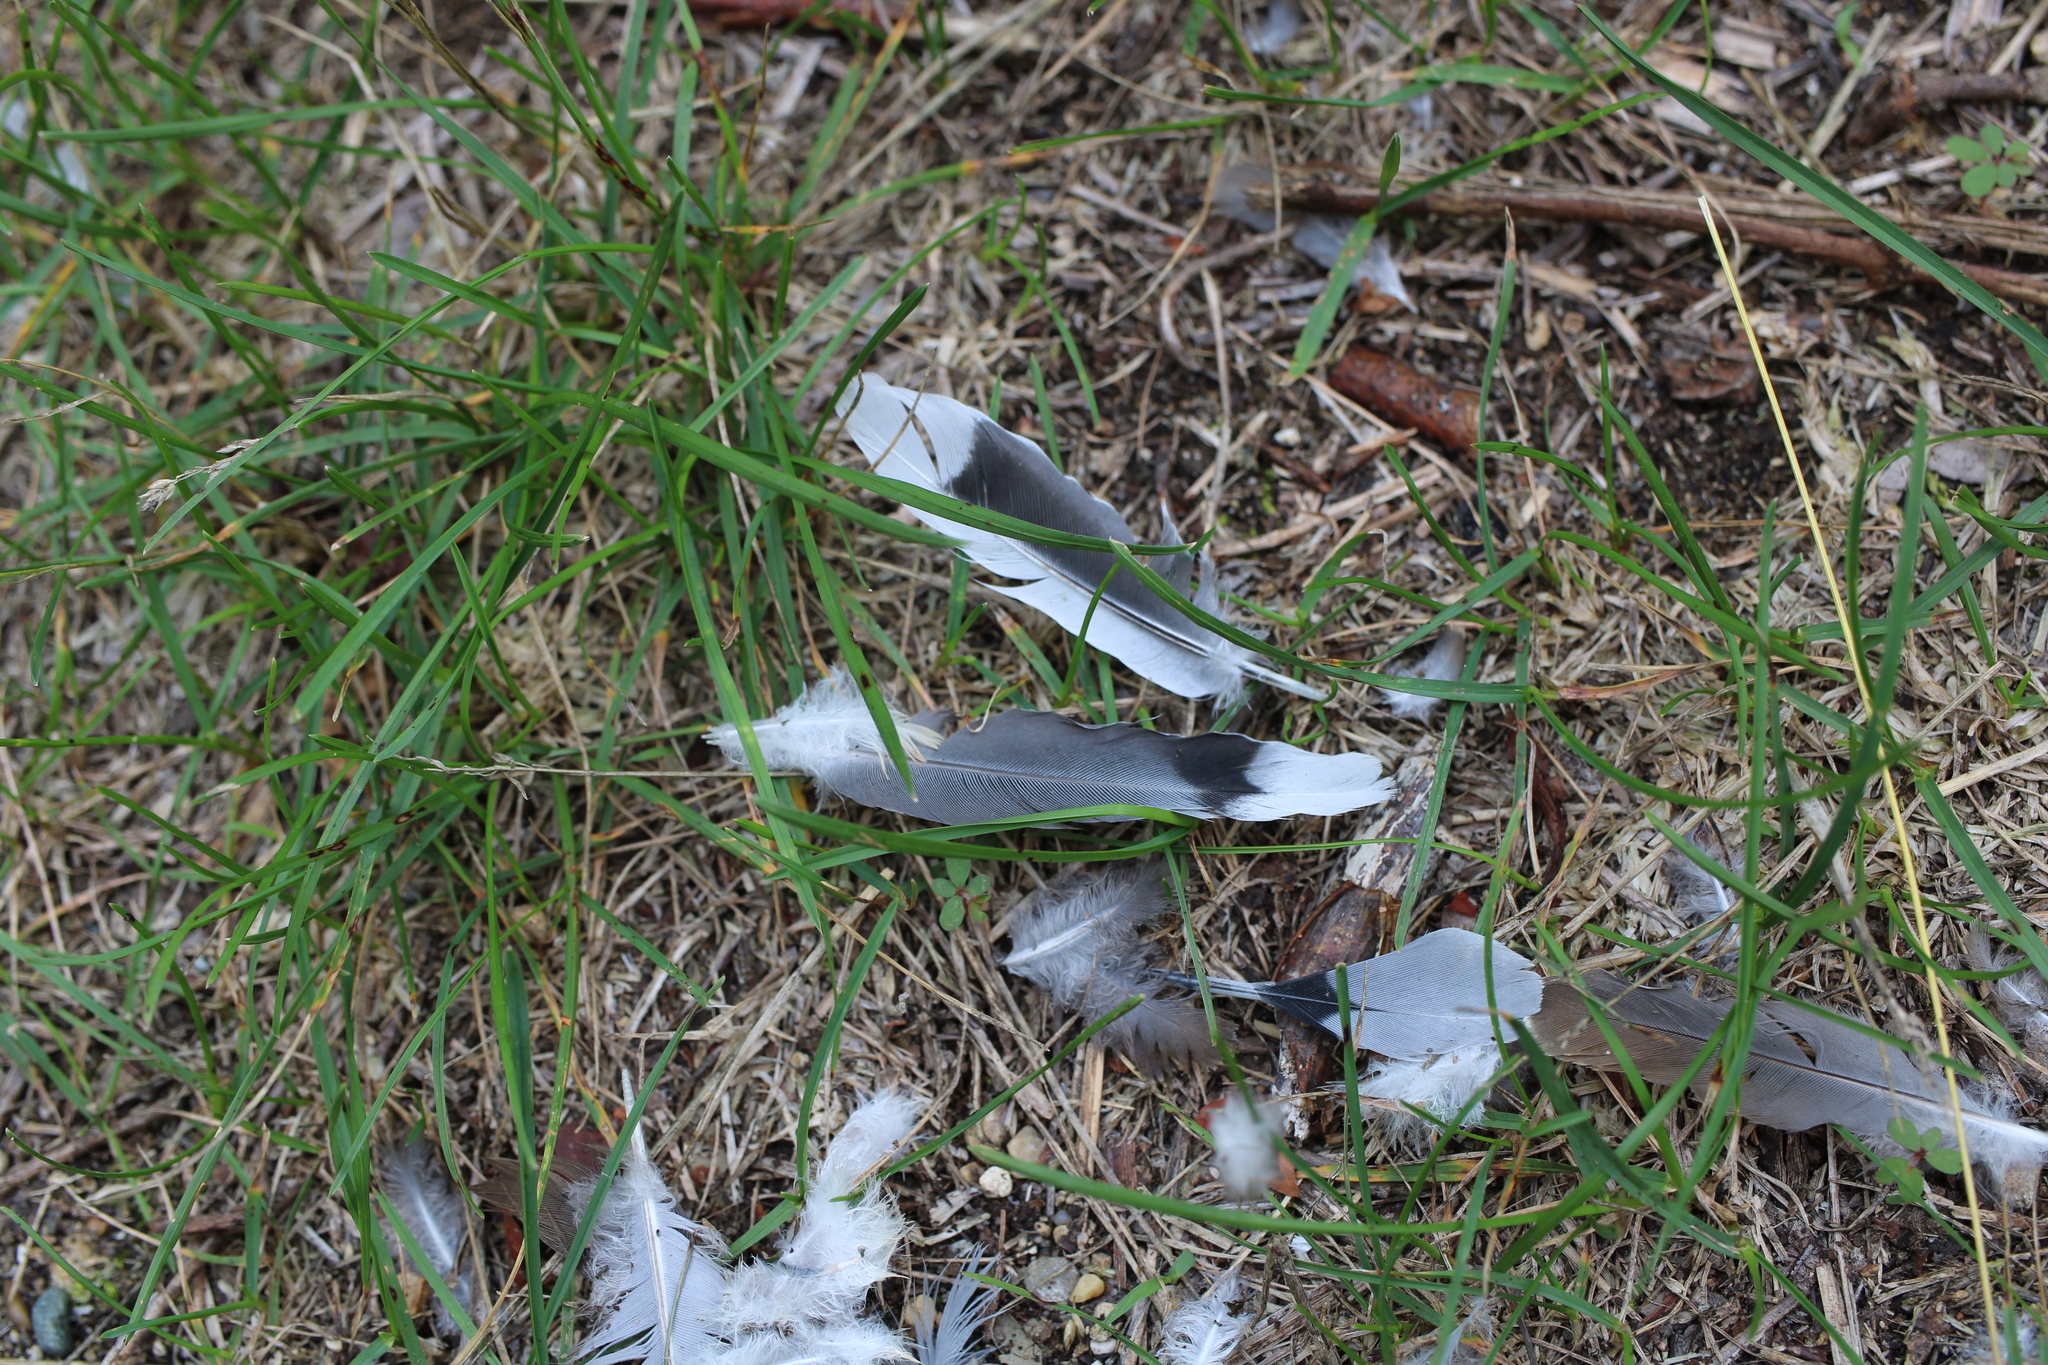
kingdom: Animalia
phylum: Chordata
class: Aves
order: Columbiformes
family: Columbidae
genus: Zenaida
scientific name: Zenaida macroura
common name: Mourning dove
